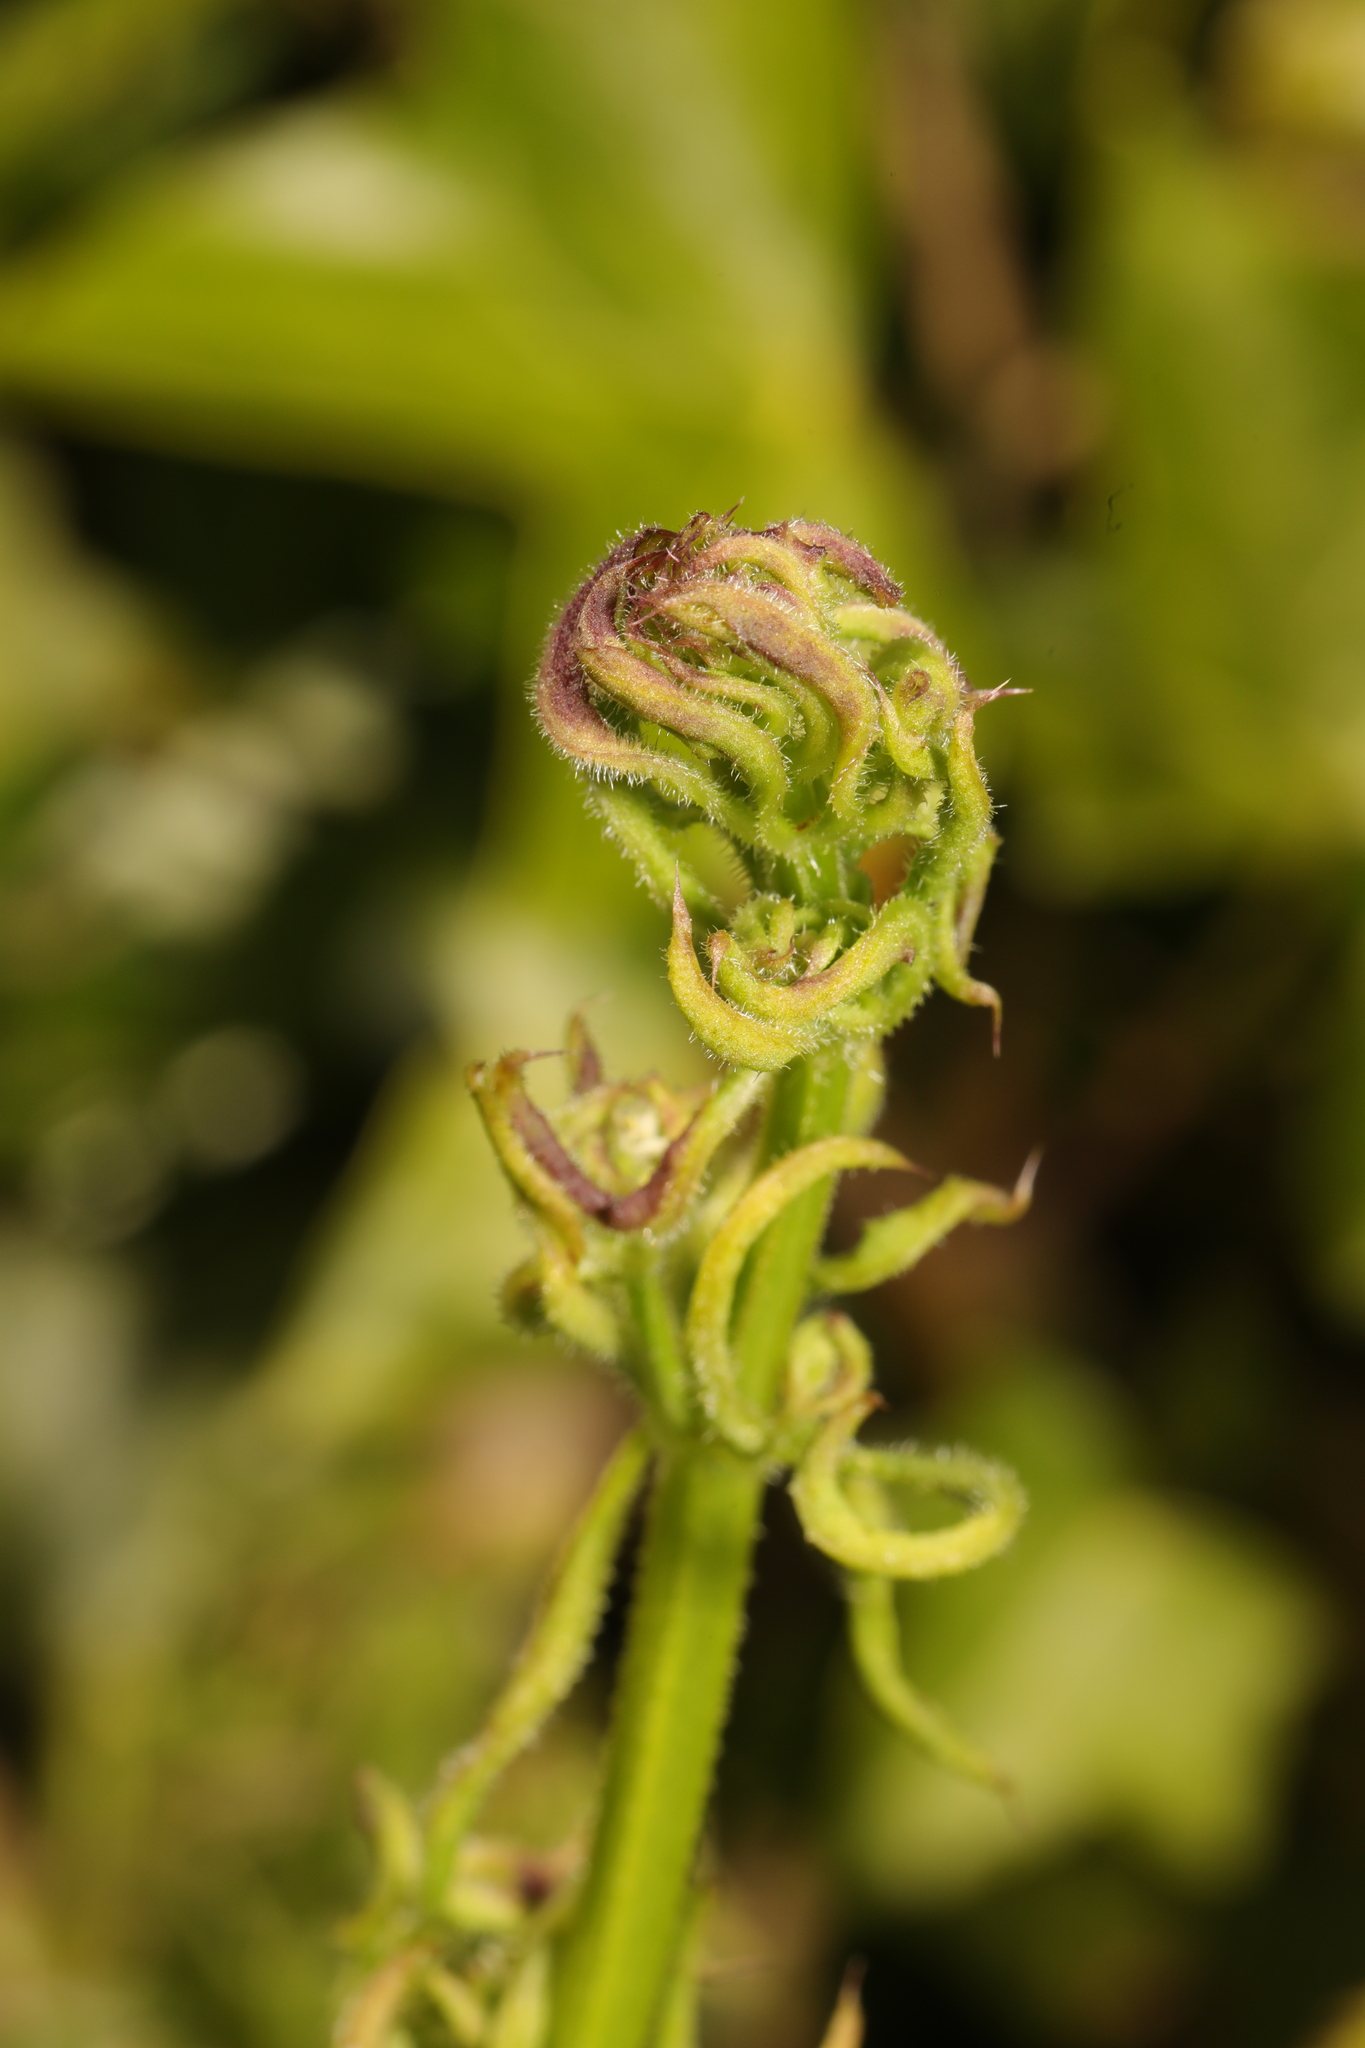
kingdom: Animalia
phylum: Arthropoda
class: Arachnida
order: Trombidiformes
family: Eriophyidae
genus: Cecidophyes
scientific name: Cecidophyes rouhollahi
